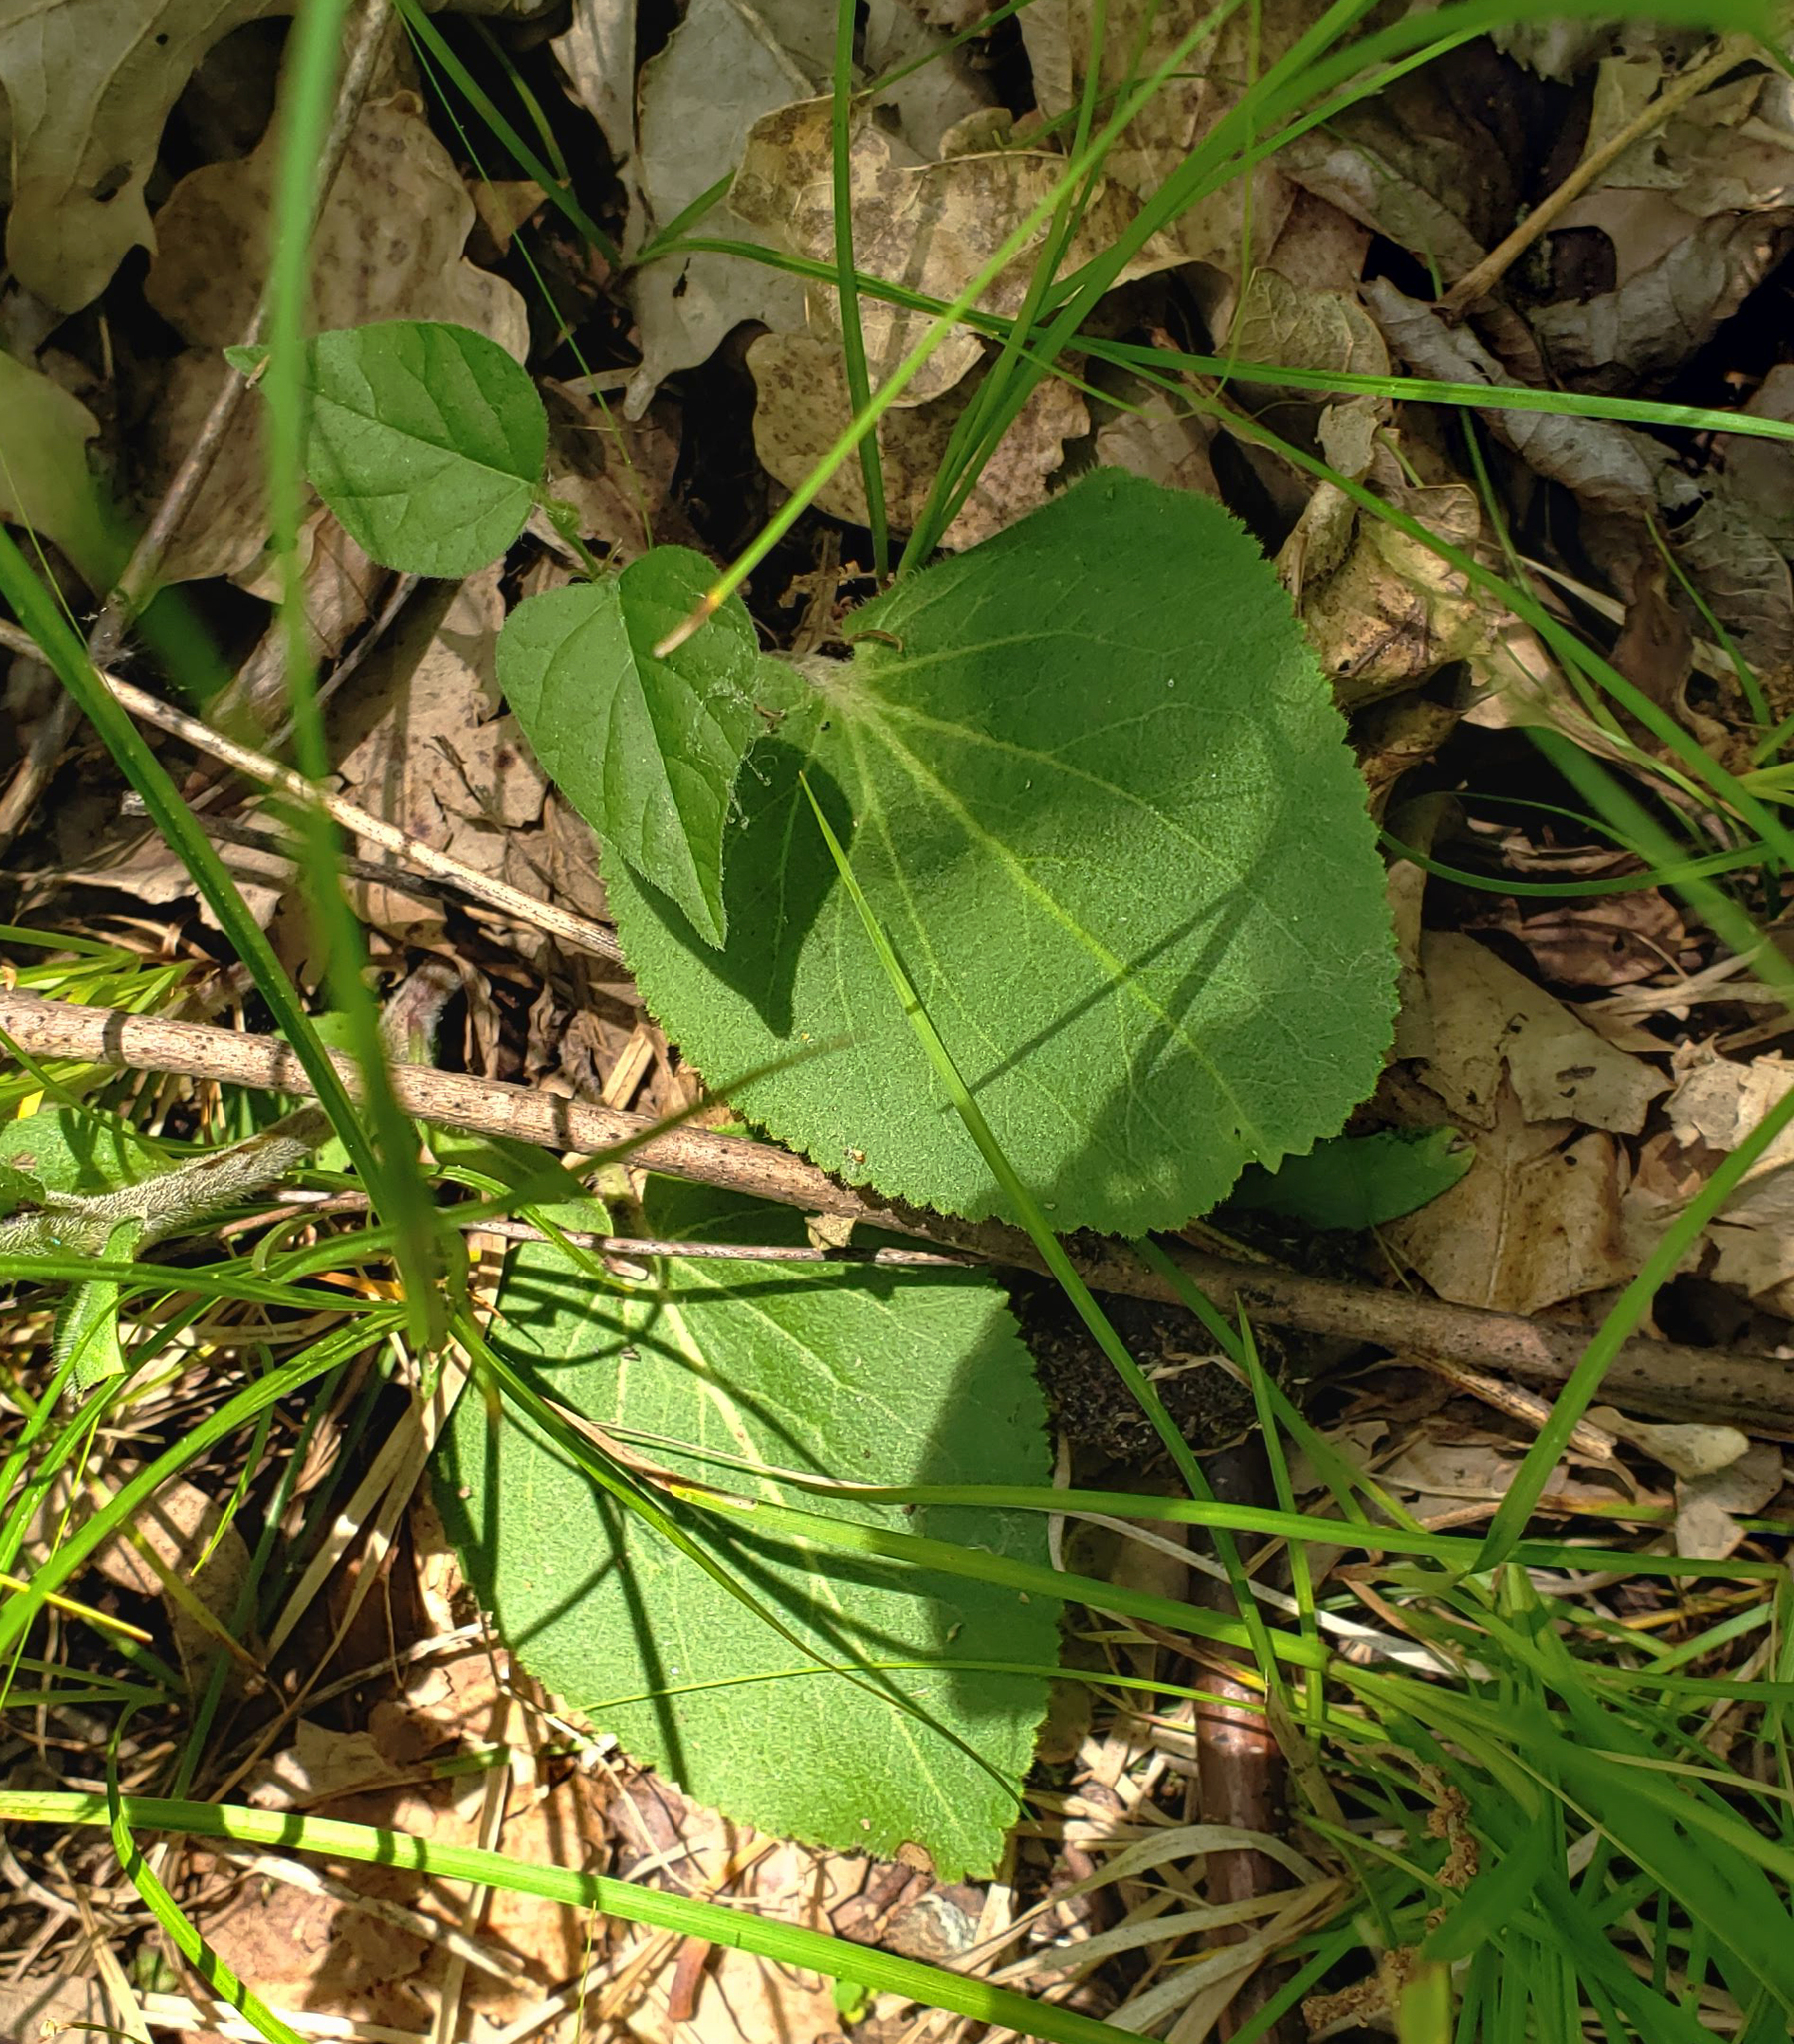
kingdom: Plantae
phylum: Tracheophyta
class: Magnoliopsida
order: Lamiales
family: Plantaginaceae
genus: Synthyris
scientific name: Synthyris bullii
